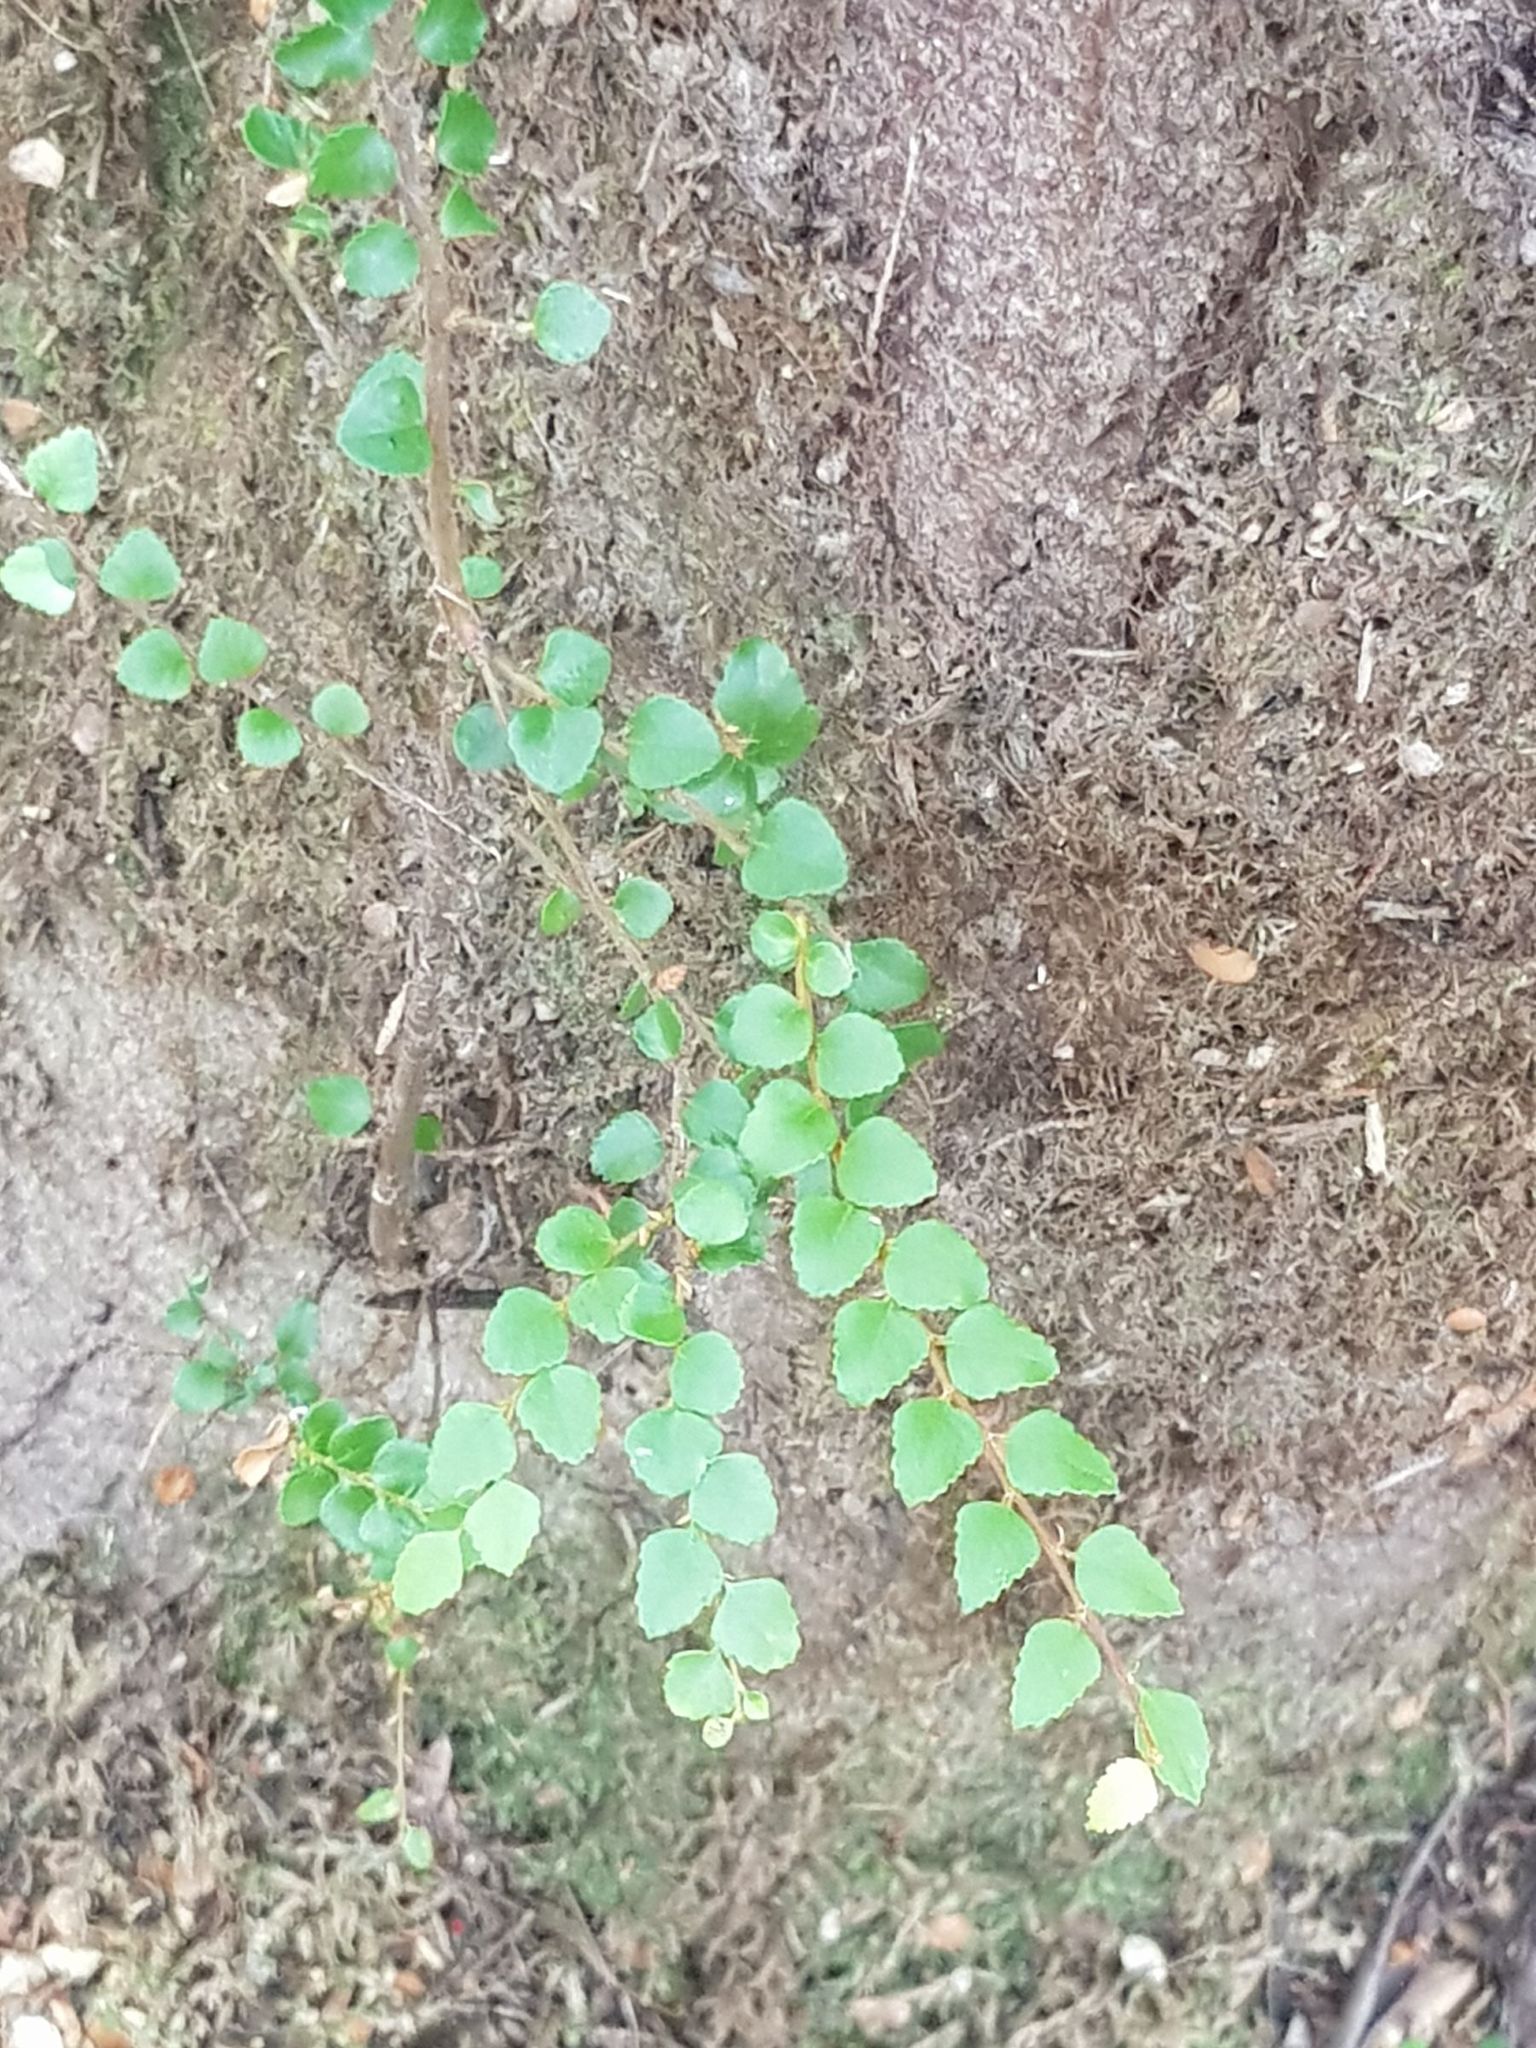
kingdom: Plantae
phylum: Tracheophyta
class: Magnoliopsida
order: Fagales
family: Nothofagaceae
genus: Nothofagus
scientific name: Nothofagus cunninghamii
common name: Myrtle beech
